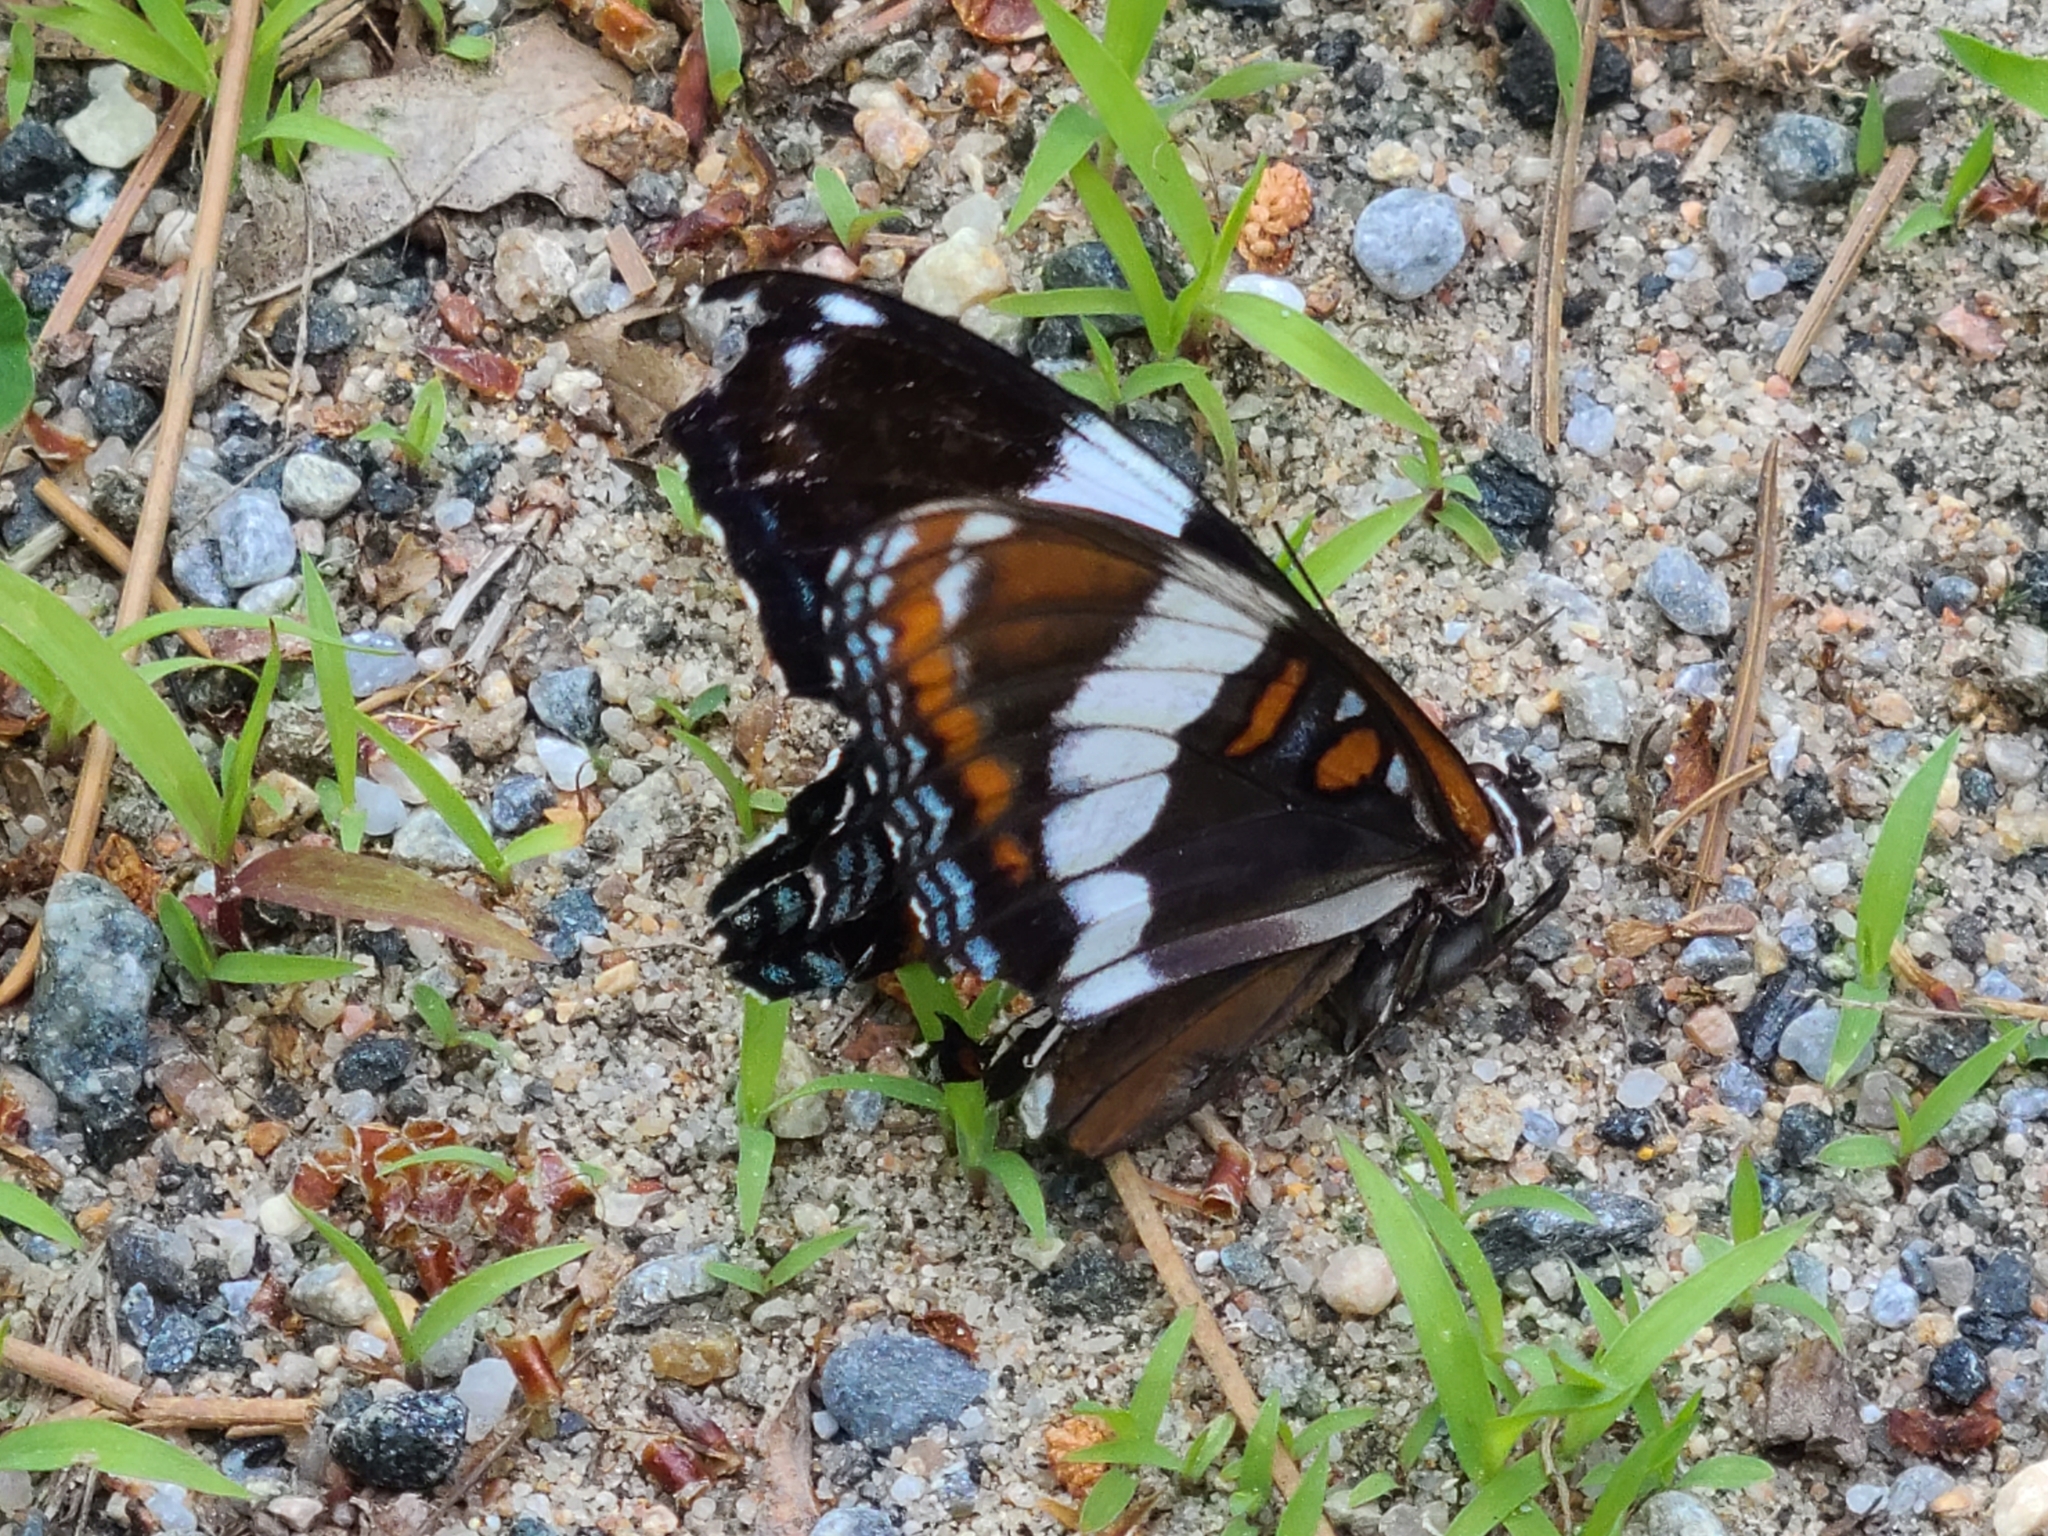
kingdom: Animalia
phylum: Arthropoda
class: Insecta
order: Lepidoptera
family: Nymphalidae
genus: Limenitis
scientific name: Limenitis arthemis
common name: Red-spotted admiral
